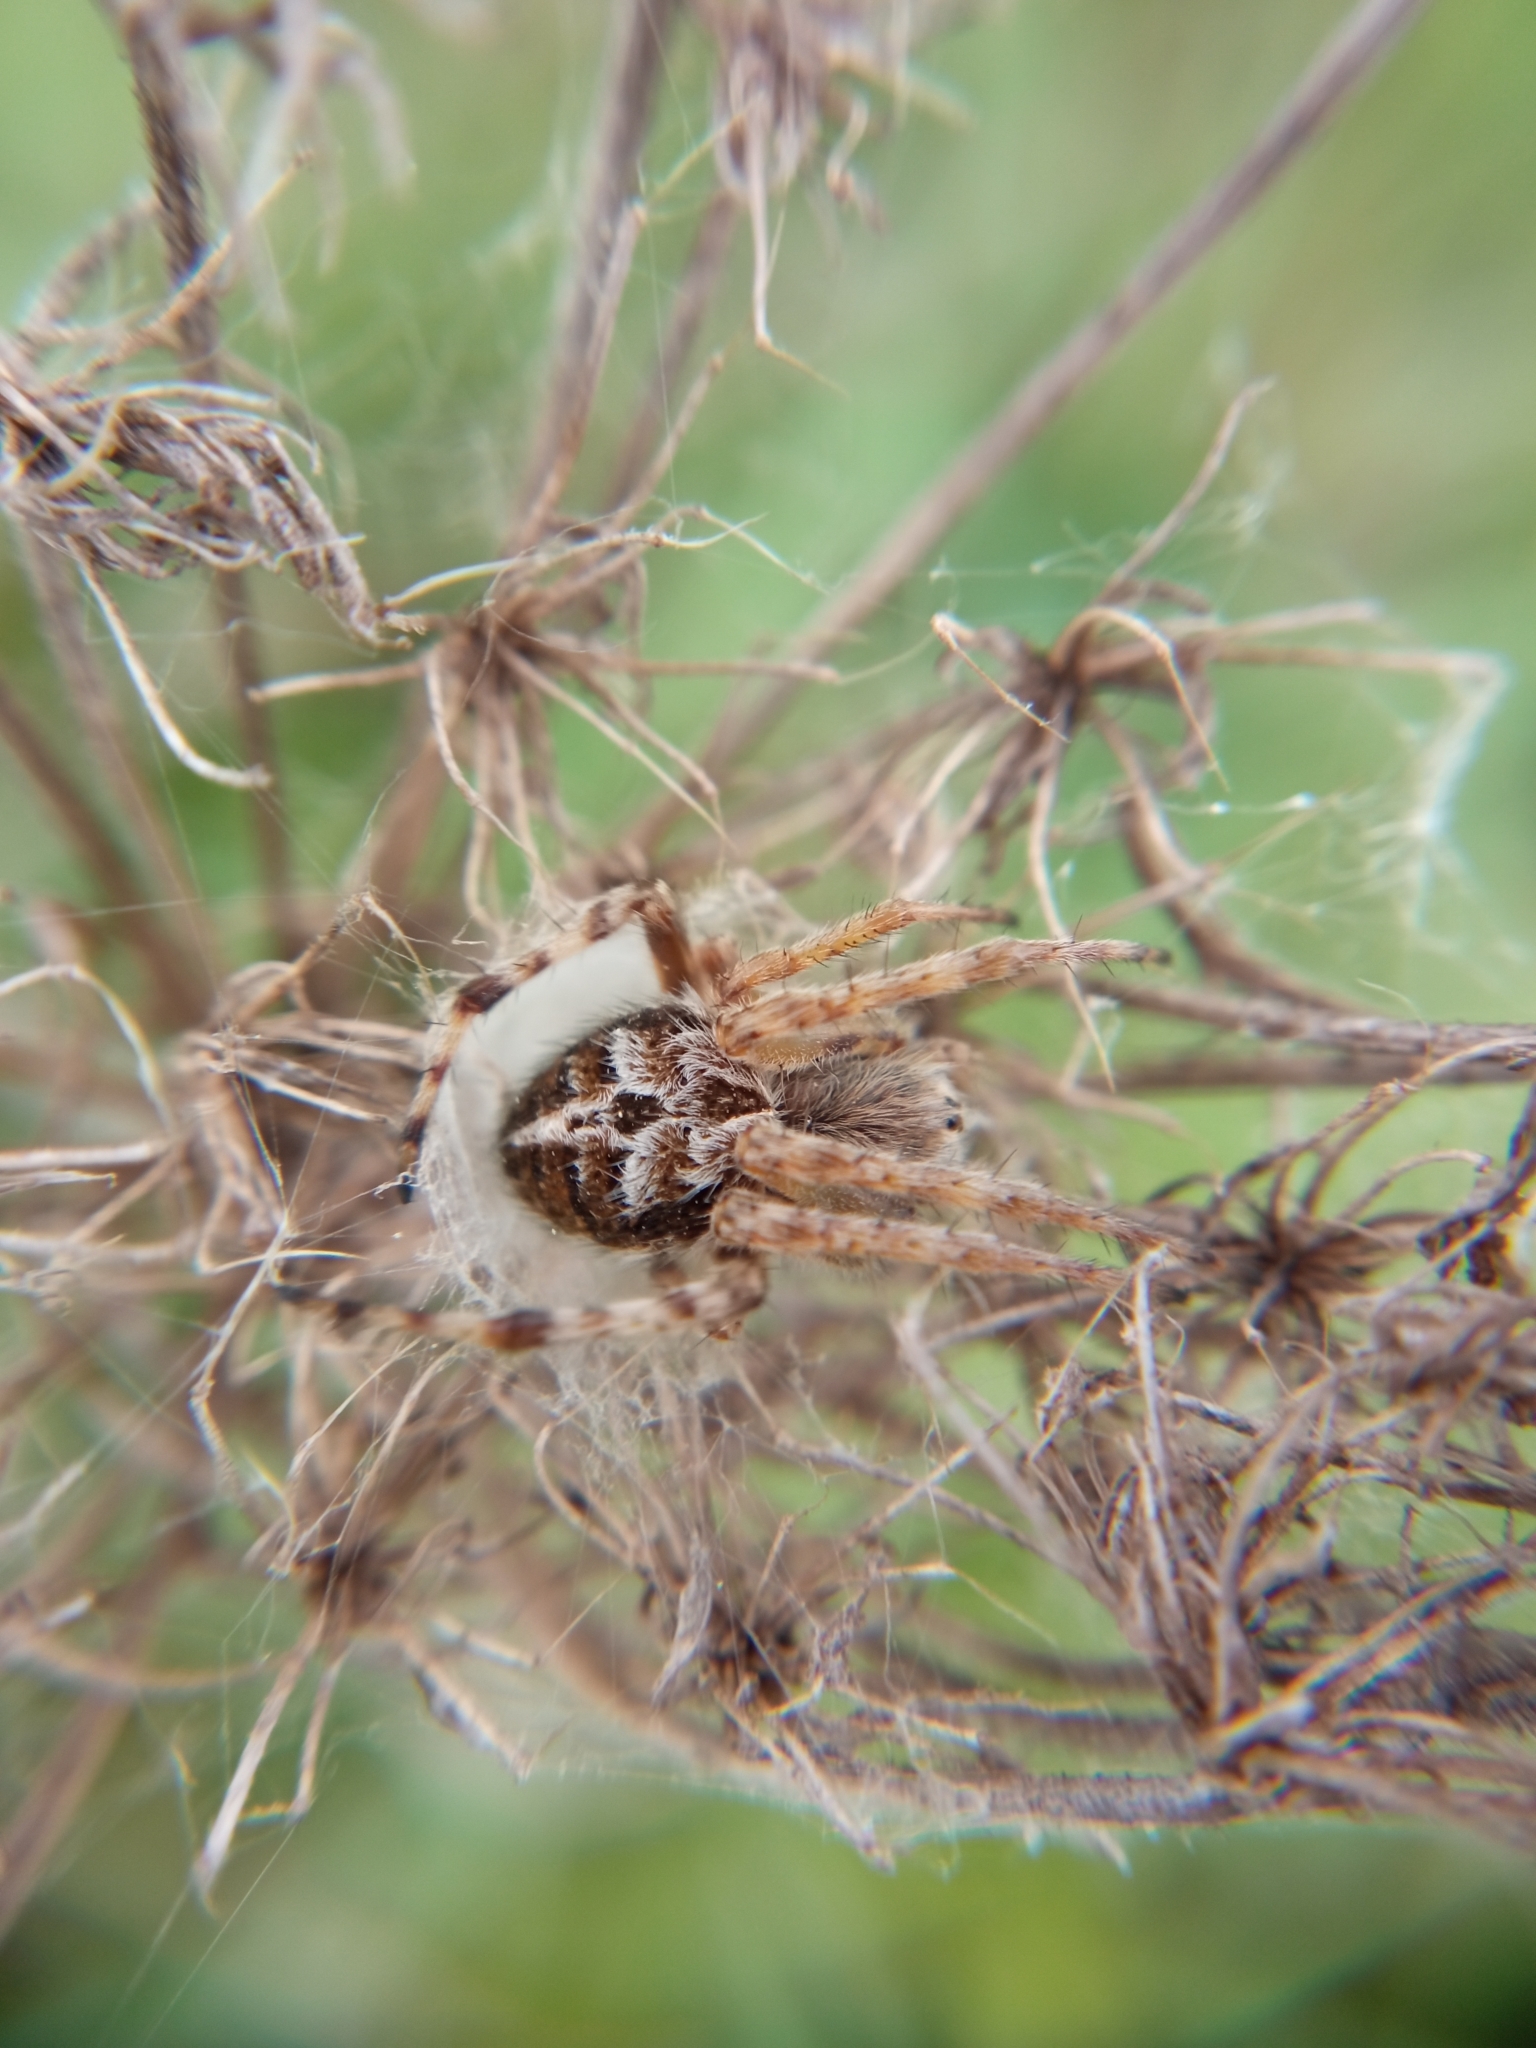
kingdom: Animalia
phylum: Arthropoda
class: Arachnida
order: Araneae
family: Araneidae
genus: Agalenatea
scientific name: Agalenatea redii
